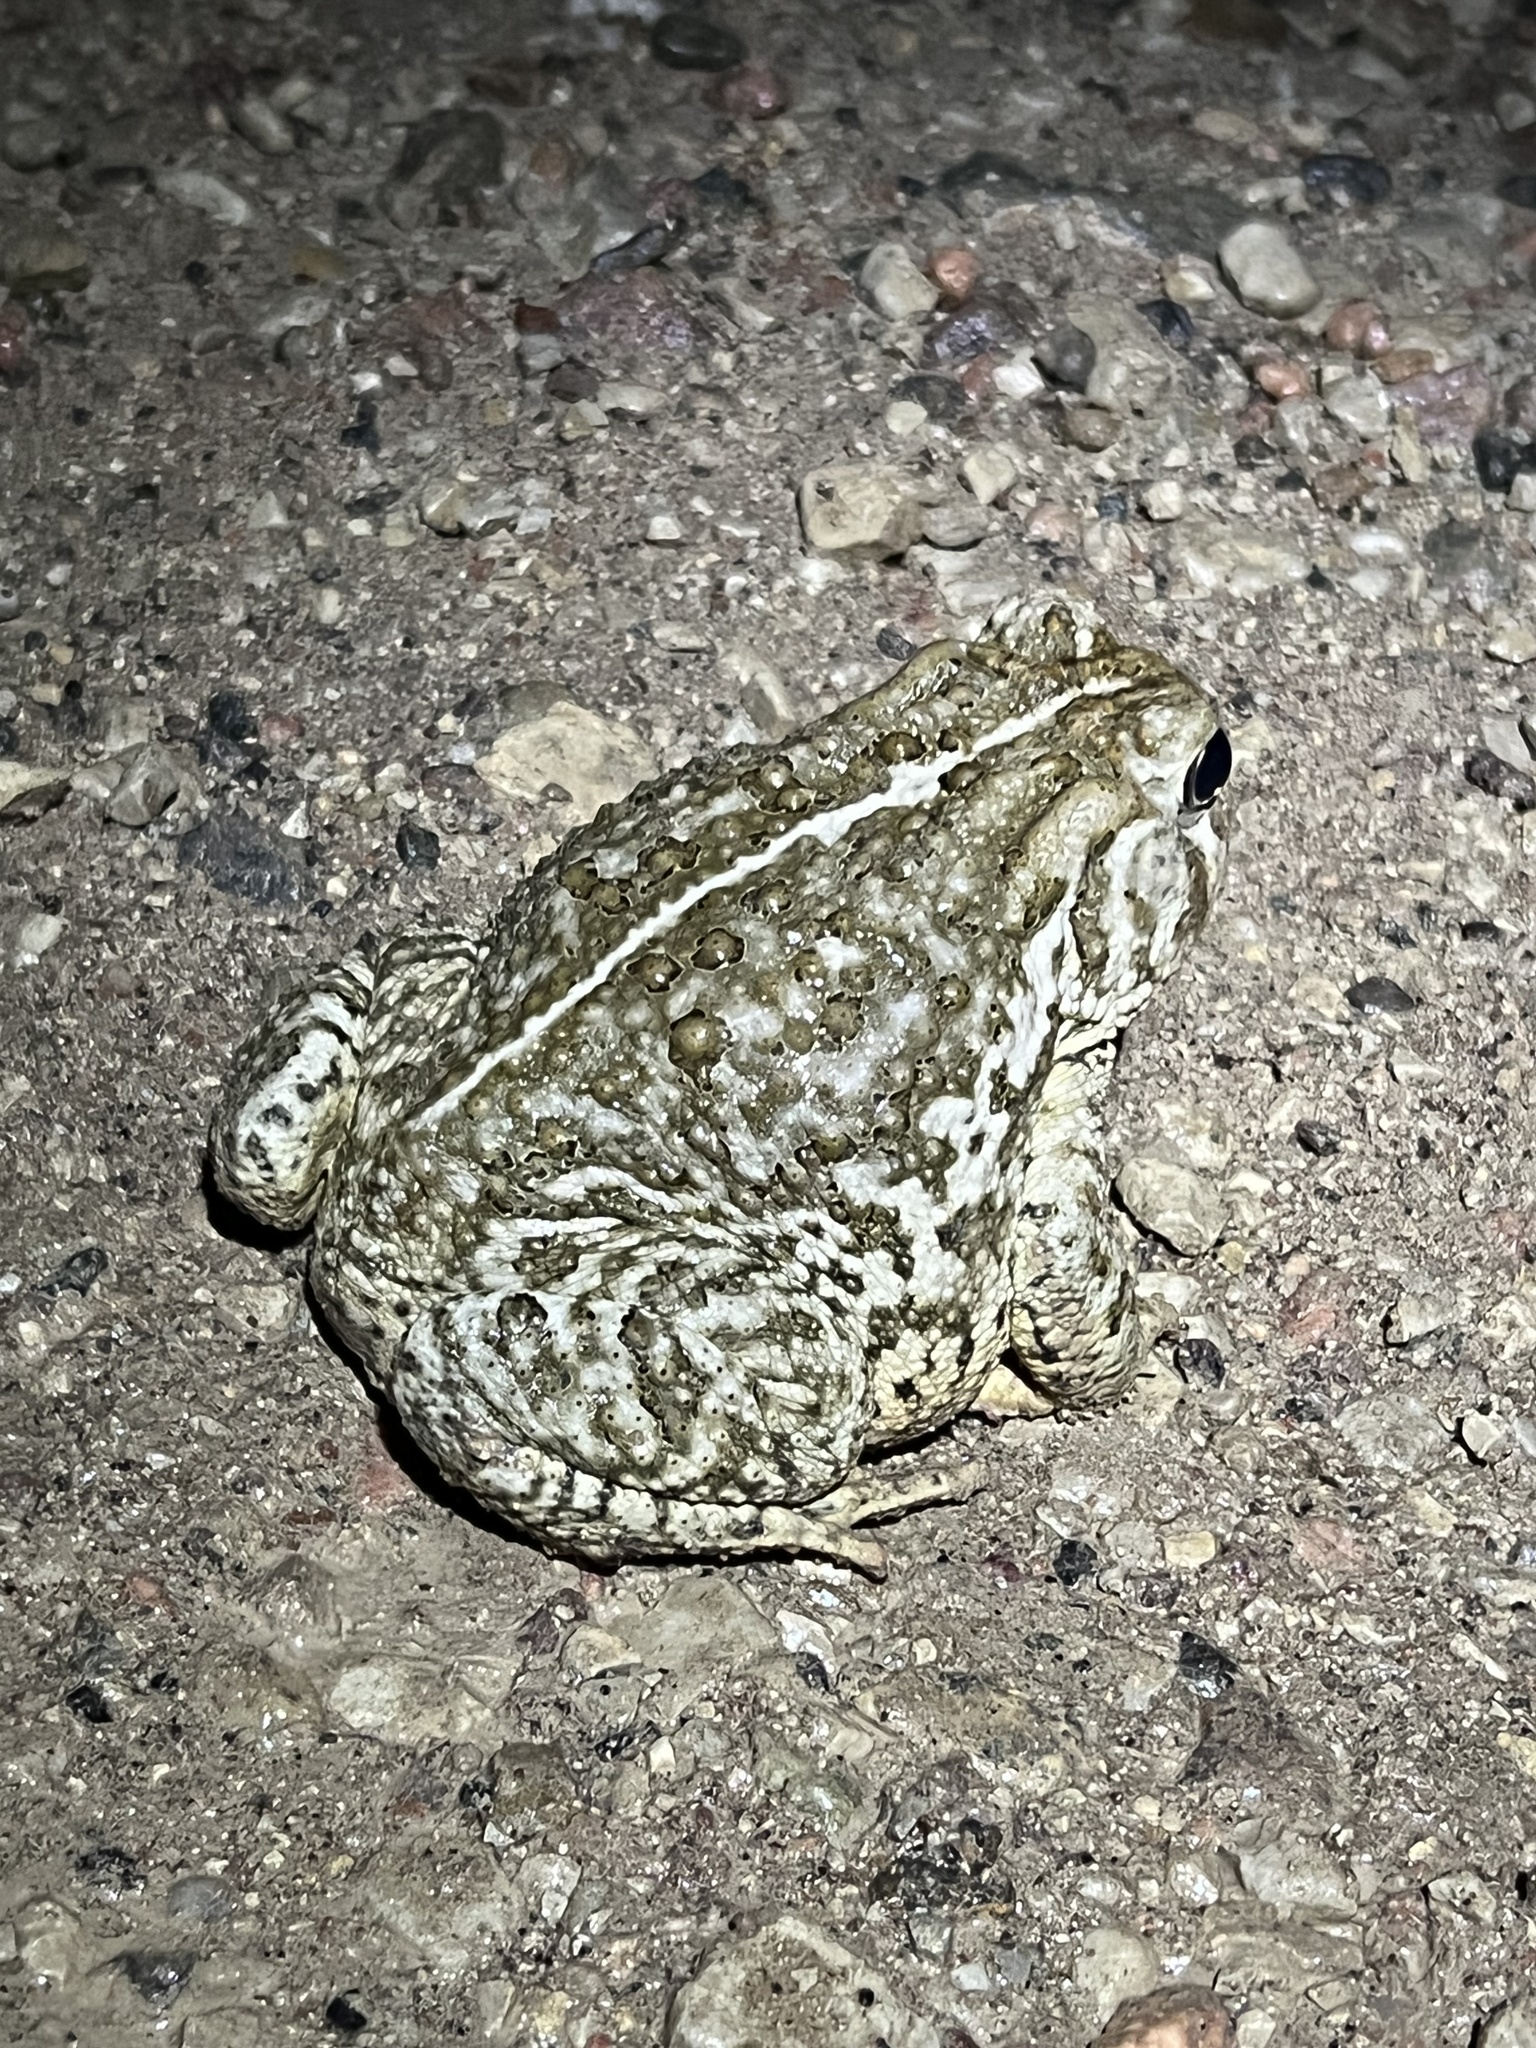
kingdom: Animalia
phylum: Chordata
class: Amphibia
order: Anura
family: Bufonidae
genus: Anaxyrus
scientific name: Anaxyrus woodhousii
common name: Woodhouse's toad
